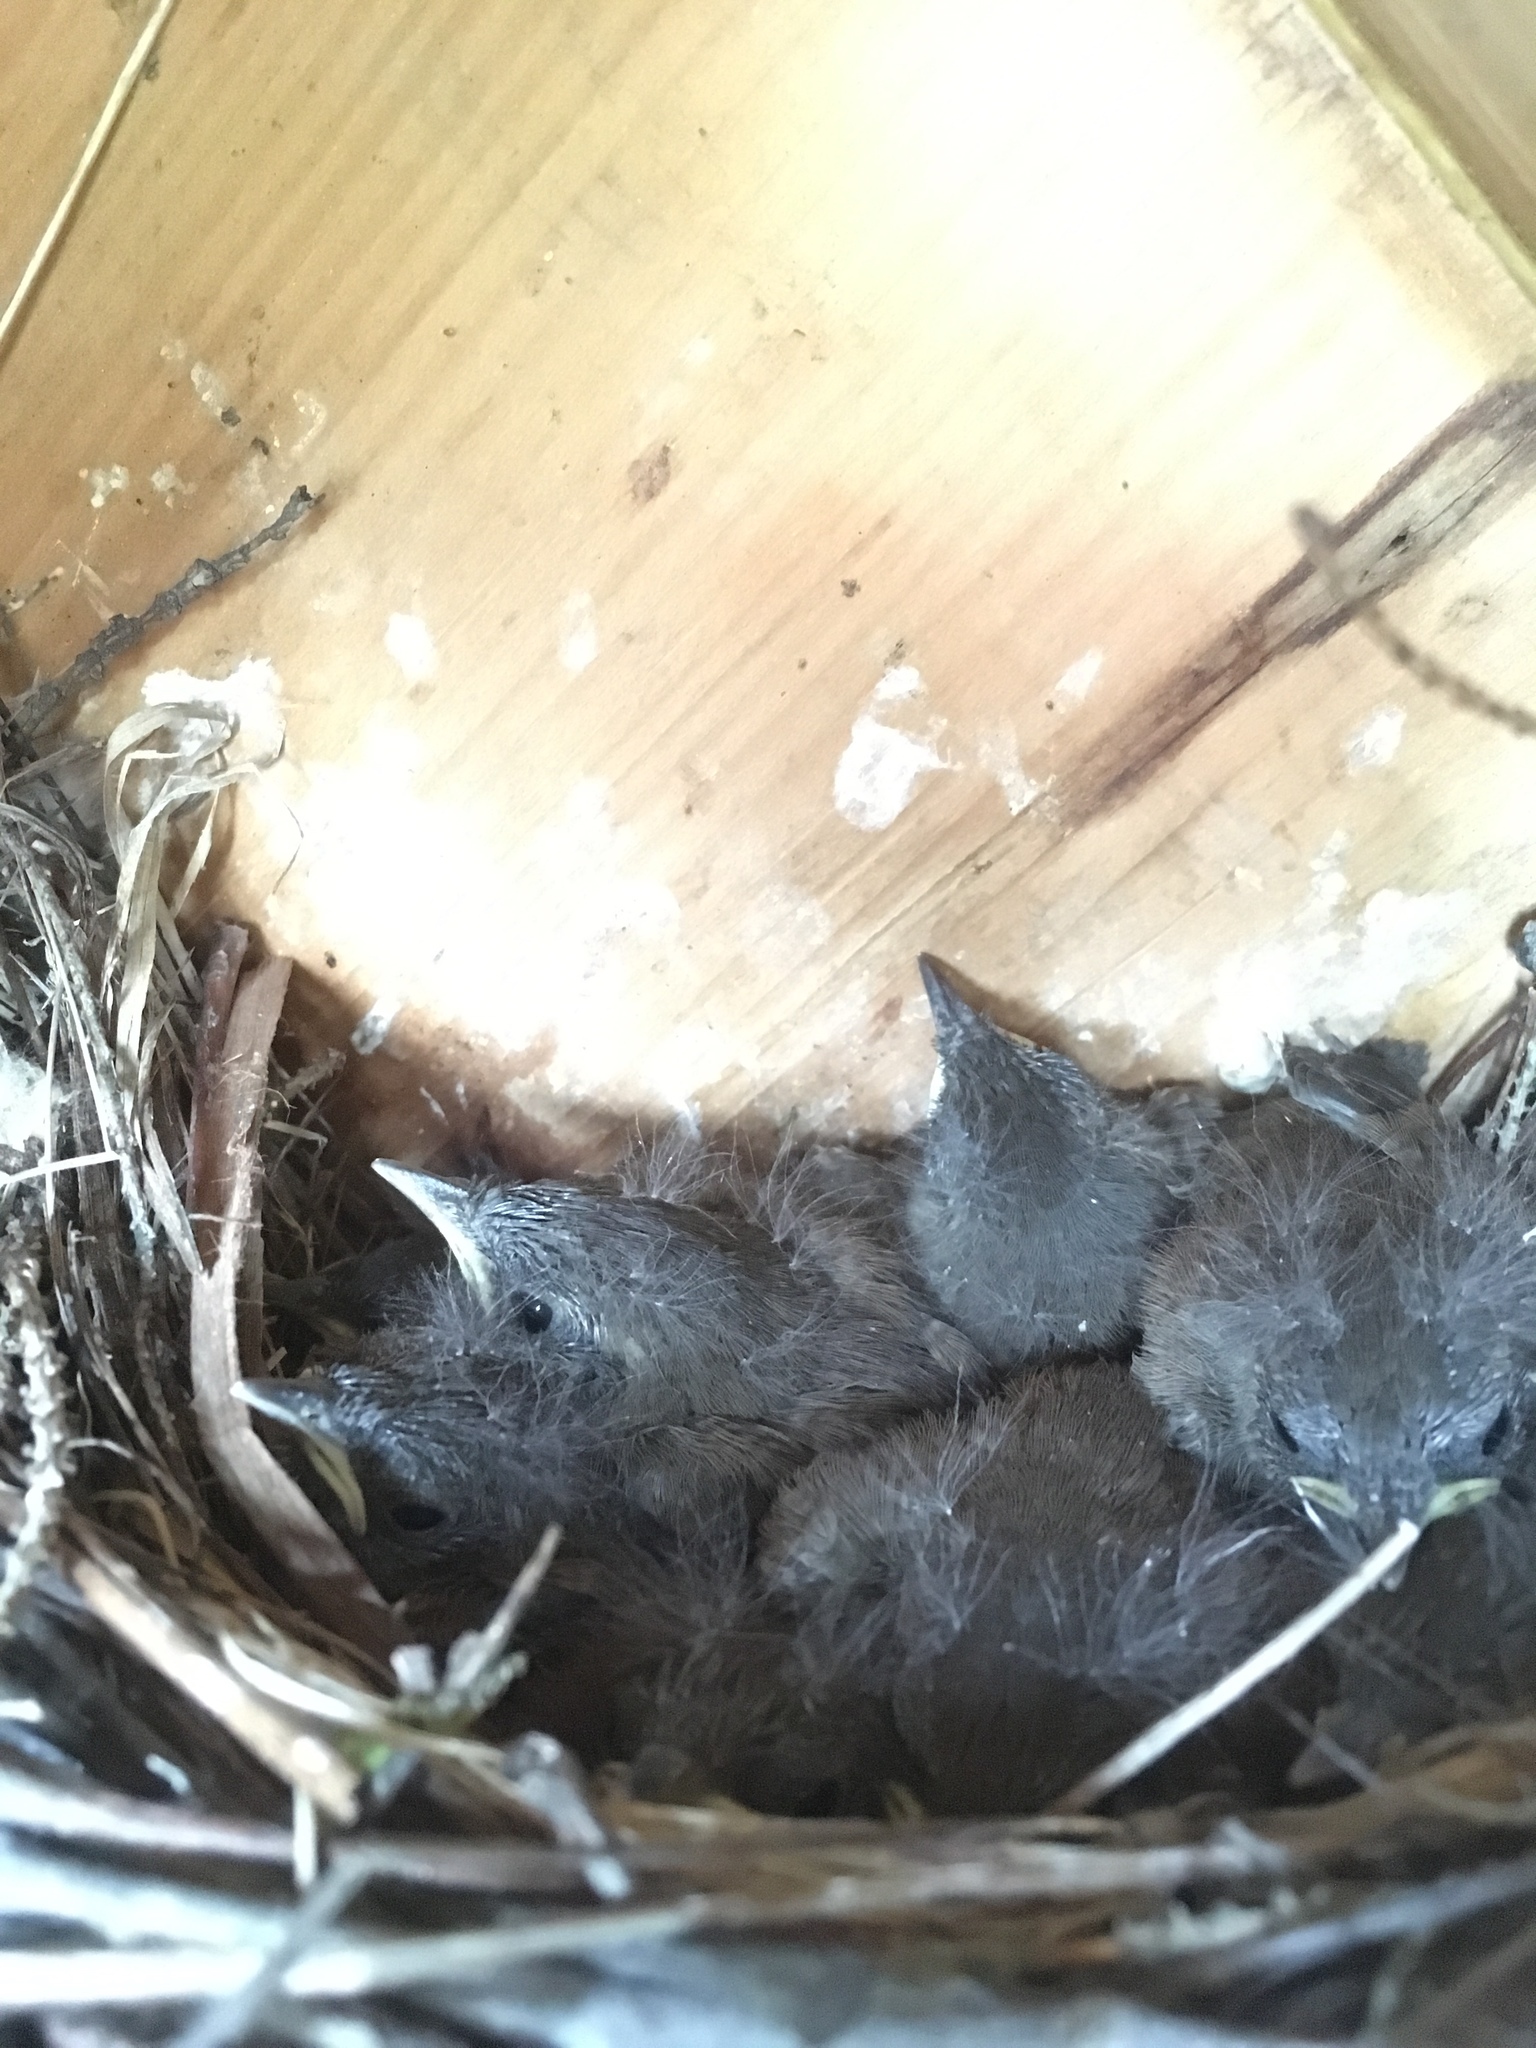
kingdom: Animalia
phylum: Chordata
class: Aves
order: Passeriformes
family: Troglodytidae
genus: Troglodytes
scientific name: Troglodytes aedon
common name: House wren
